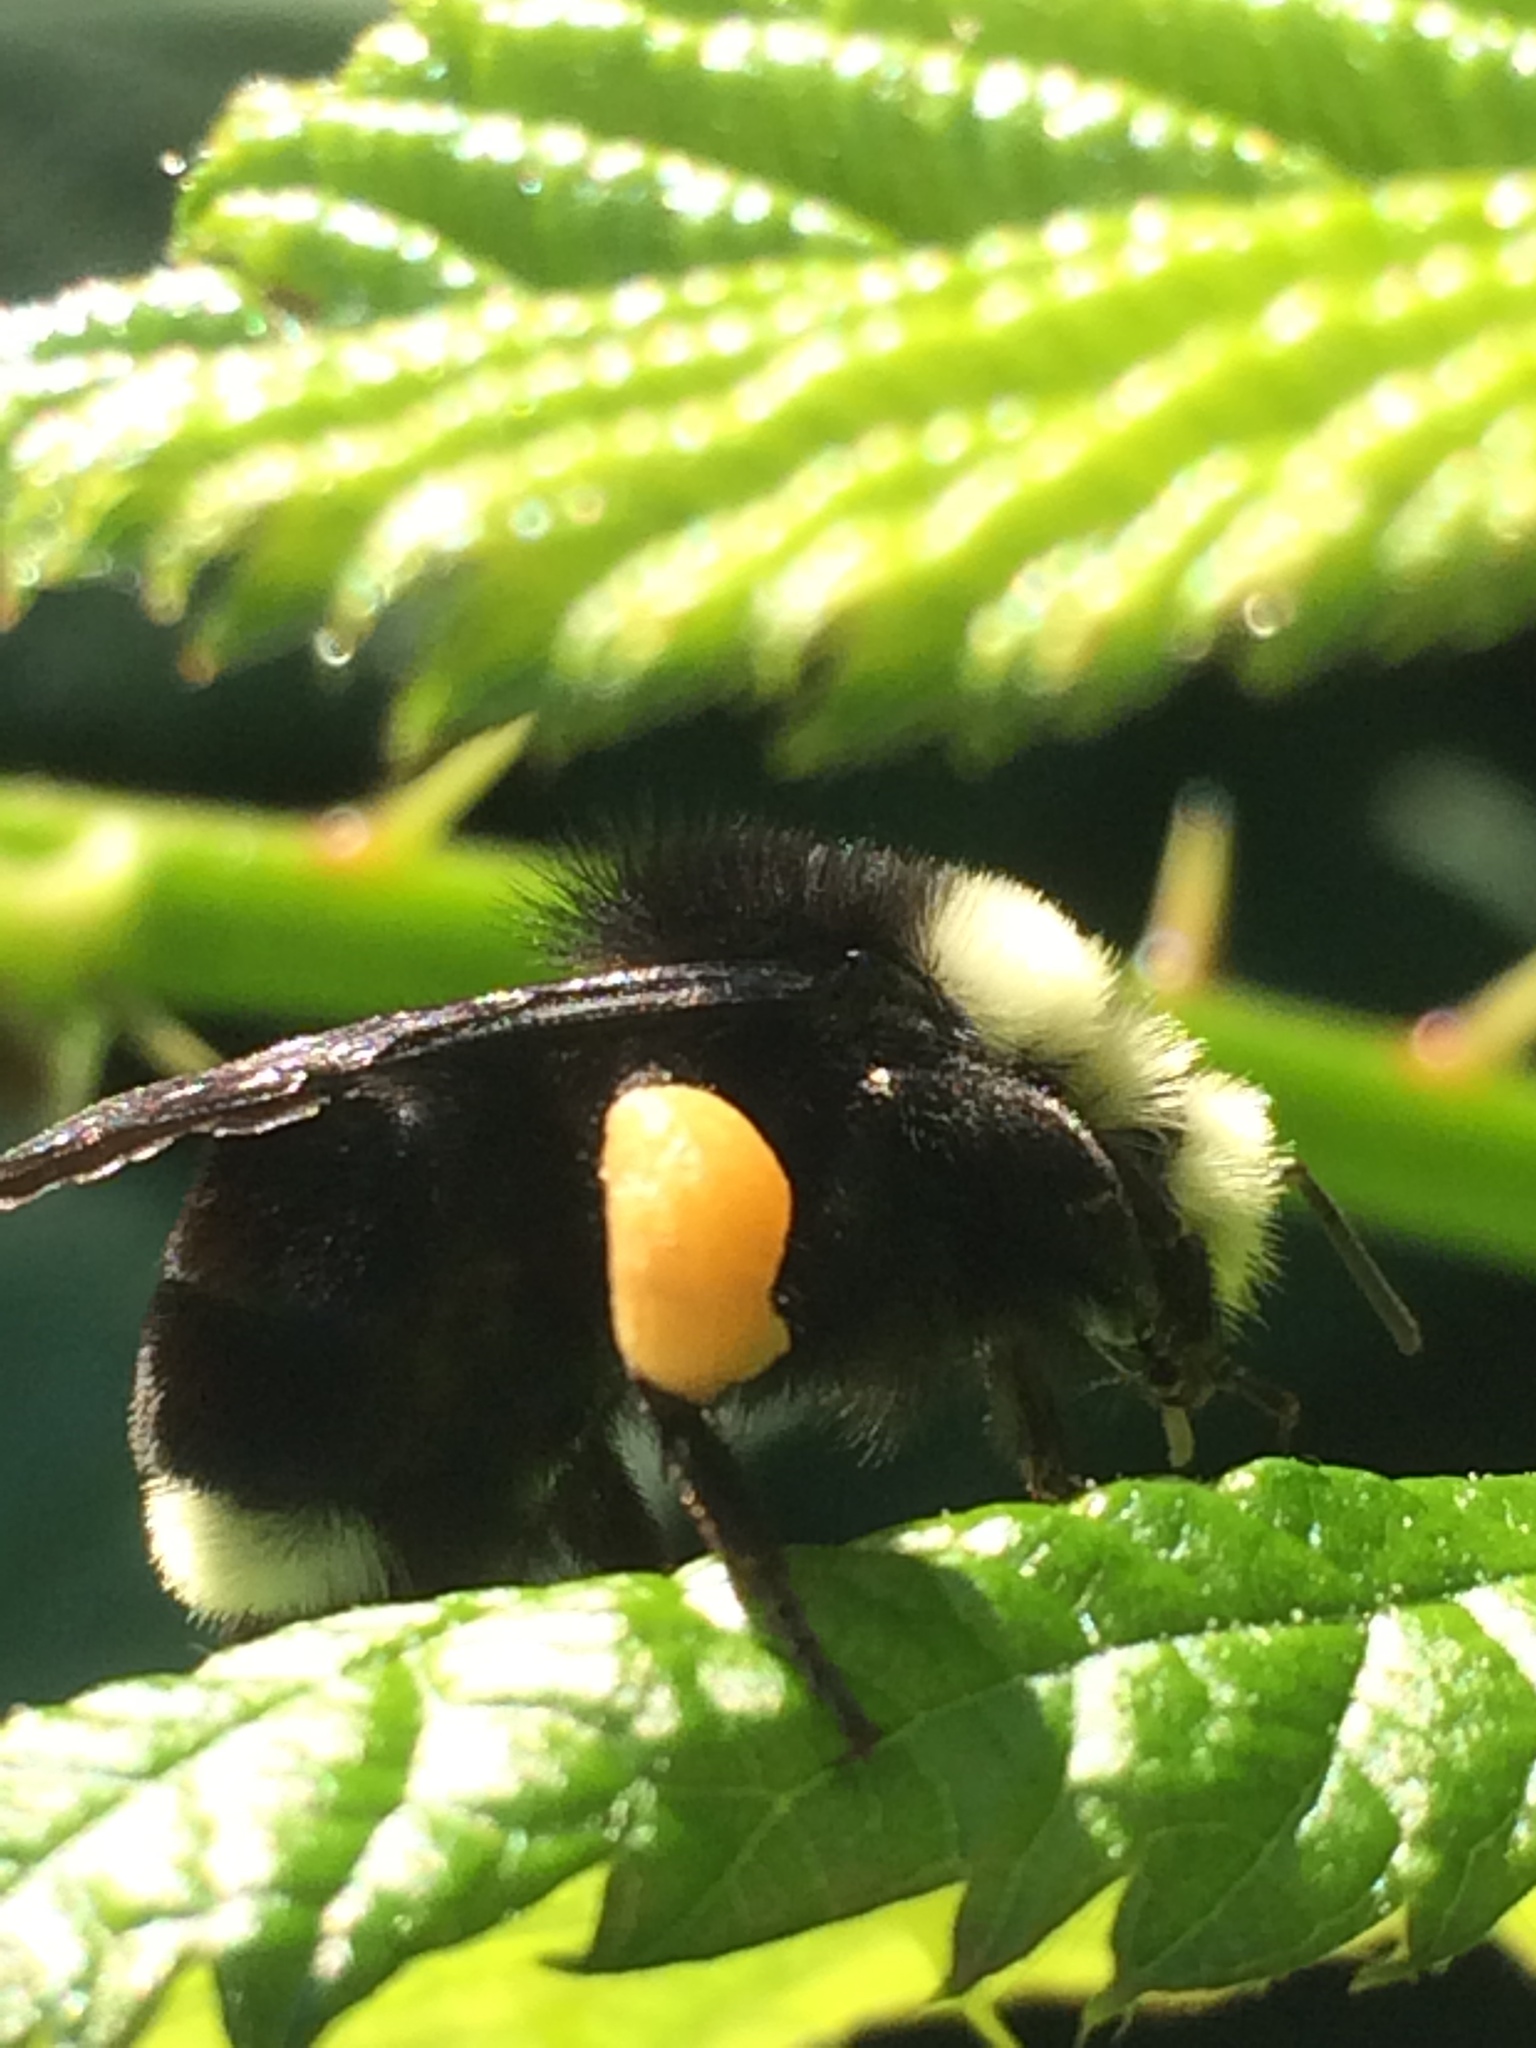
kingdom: Animalia
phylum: Arthropoda
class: Insecta
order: Hymenoptera
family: Apidae
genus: Bombus
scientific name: Bombus vosnesenskii
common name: Vosnesensky bumble bee
